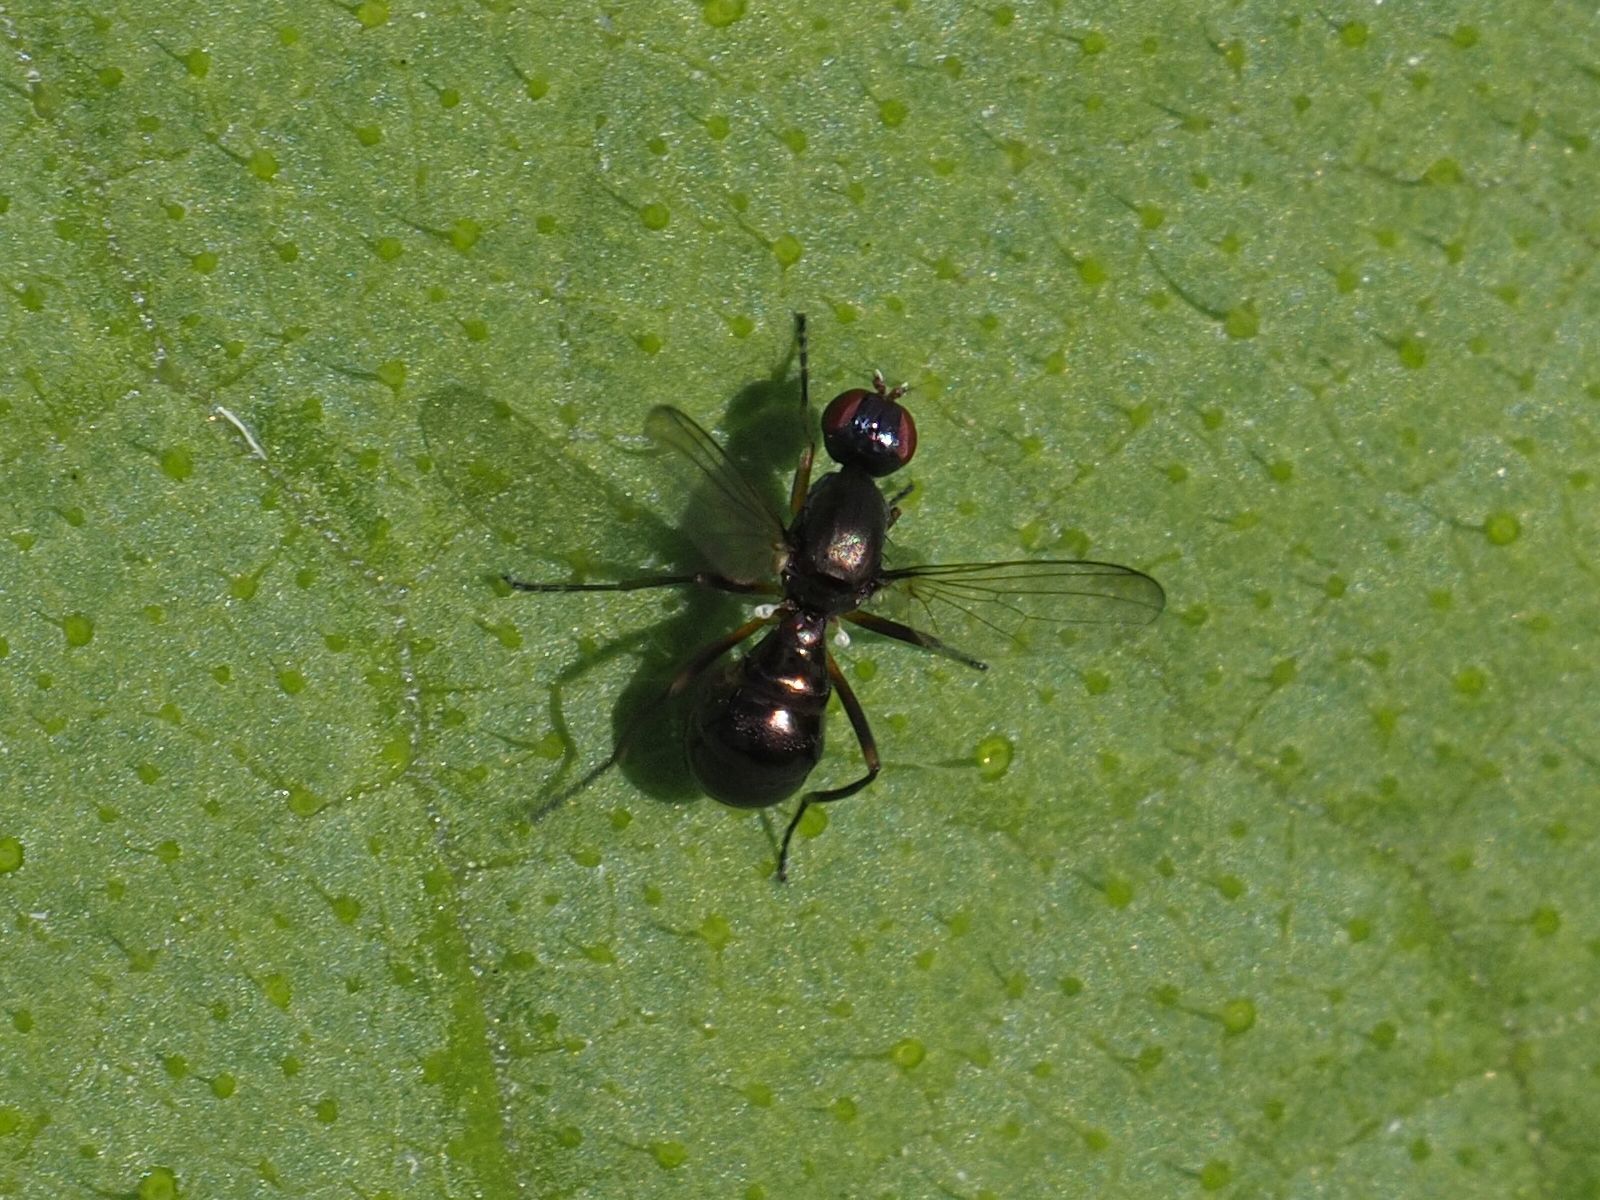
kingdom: Animalia
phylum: Arthropoda
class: Insecta
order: Diptera
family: Sepsidae
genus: Nemopoda
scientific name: Nemopoda nitidula
